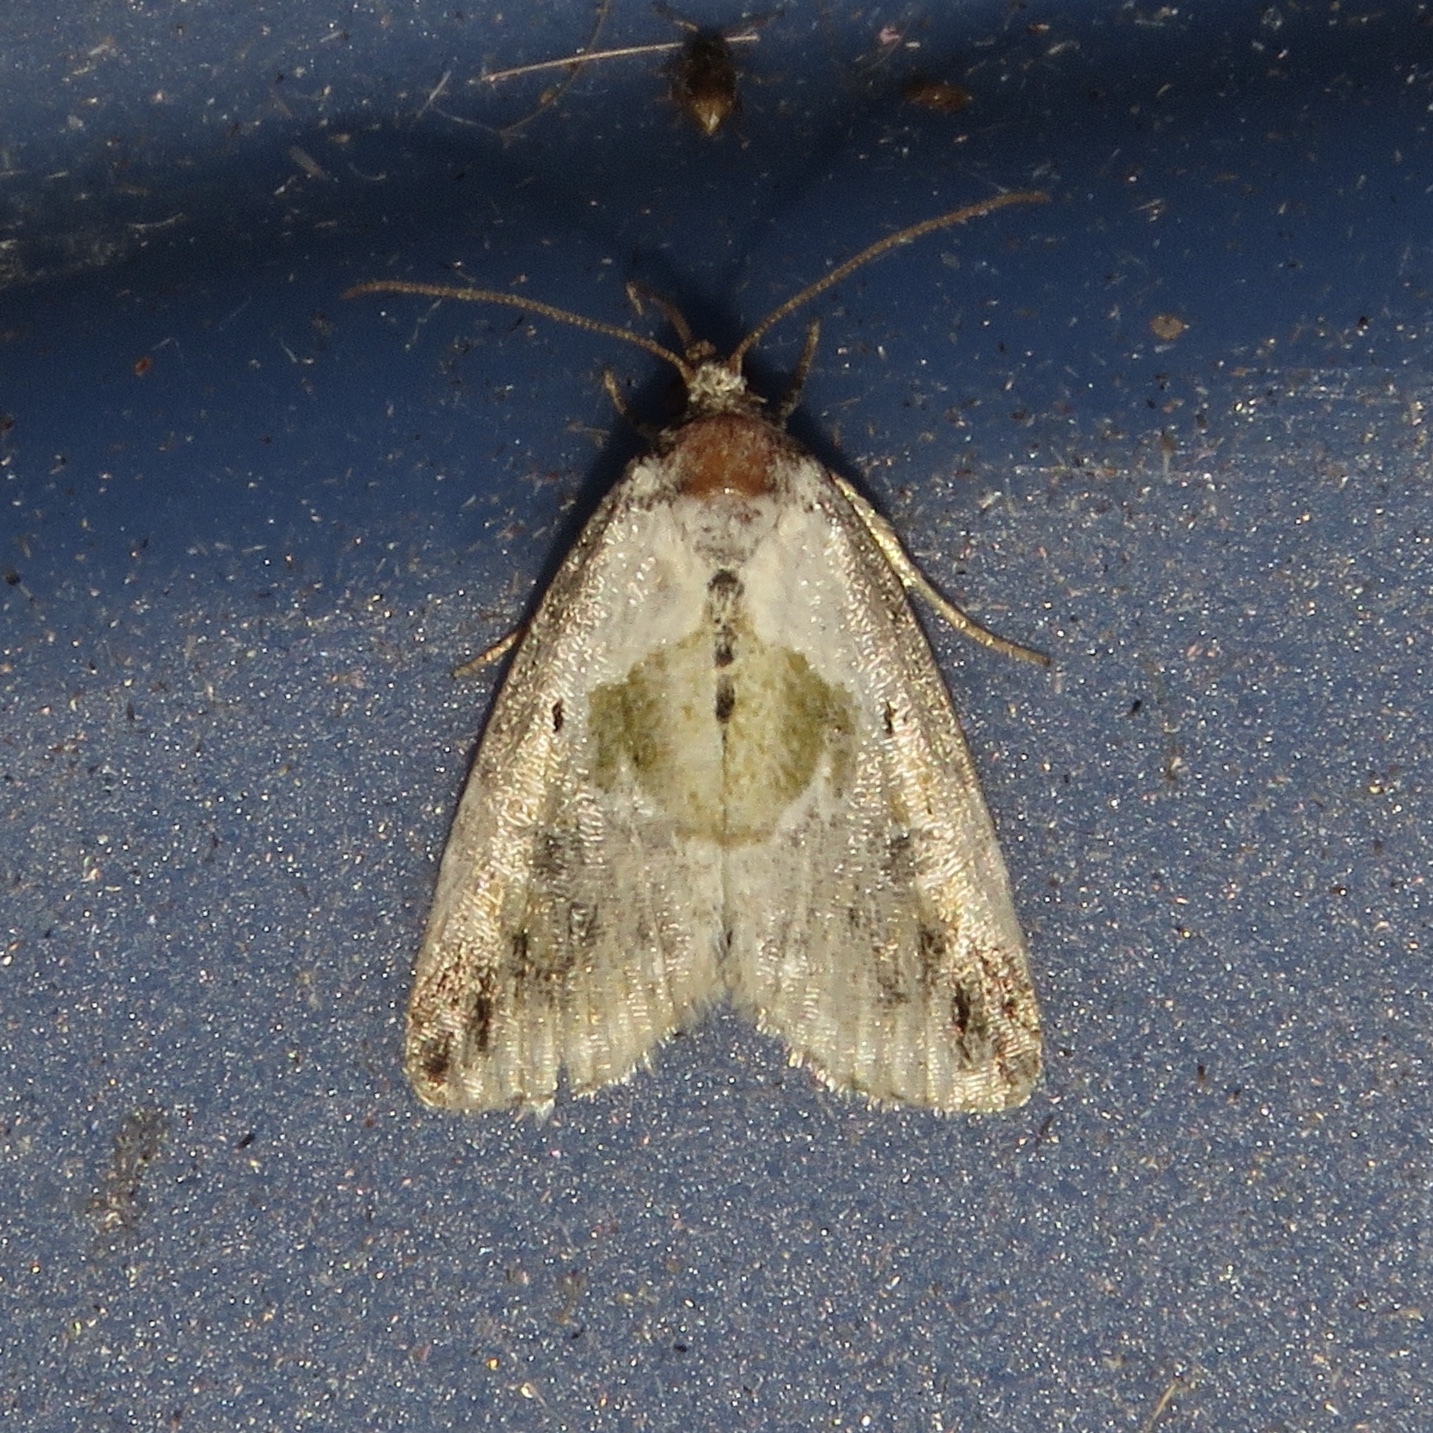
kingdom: Animalia
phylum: Arthropoda
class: Insecta
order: Lepidoptera
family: Noctuidae
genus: Maliattha
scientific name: Maliattha synochitis
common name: Black-dotted glyph
